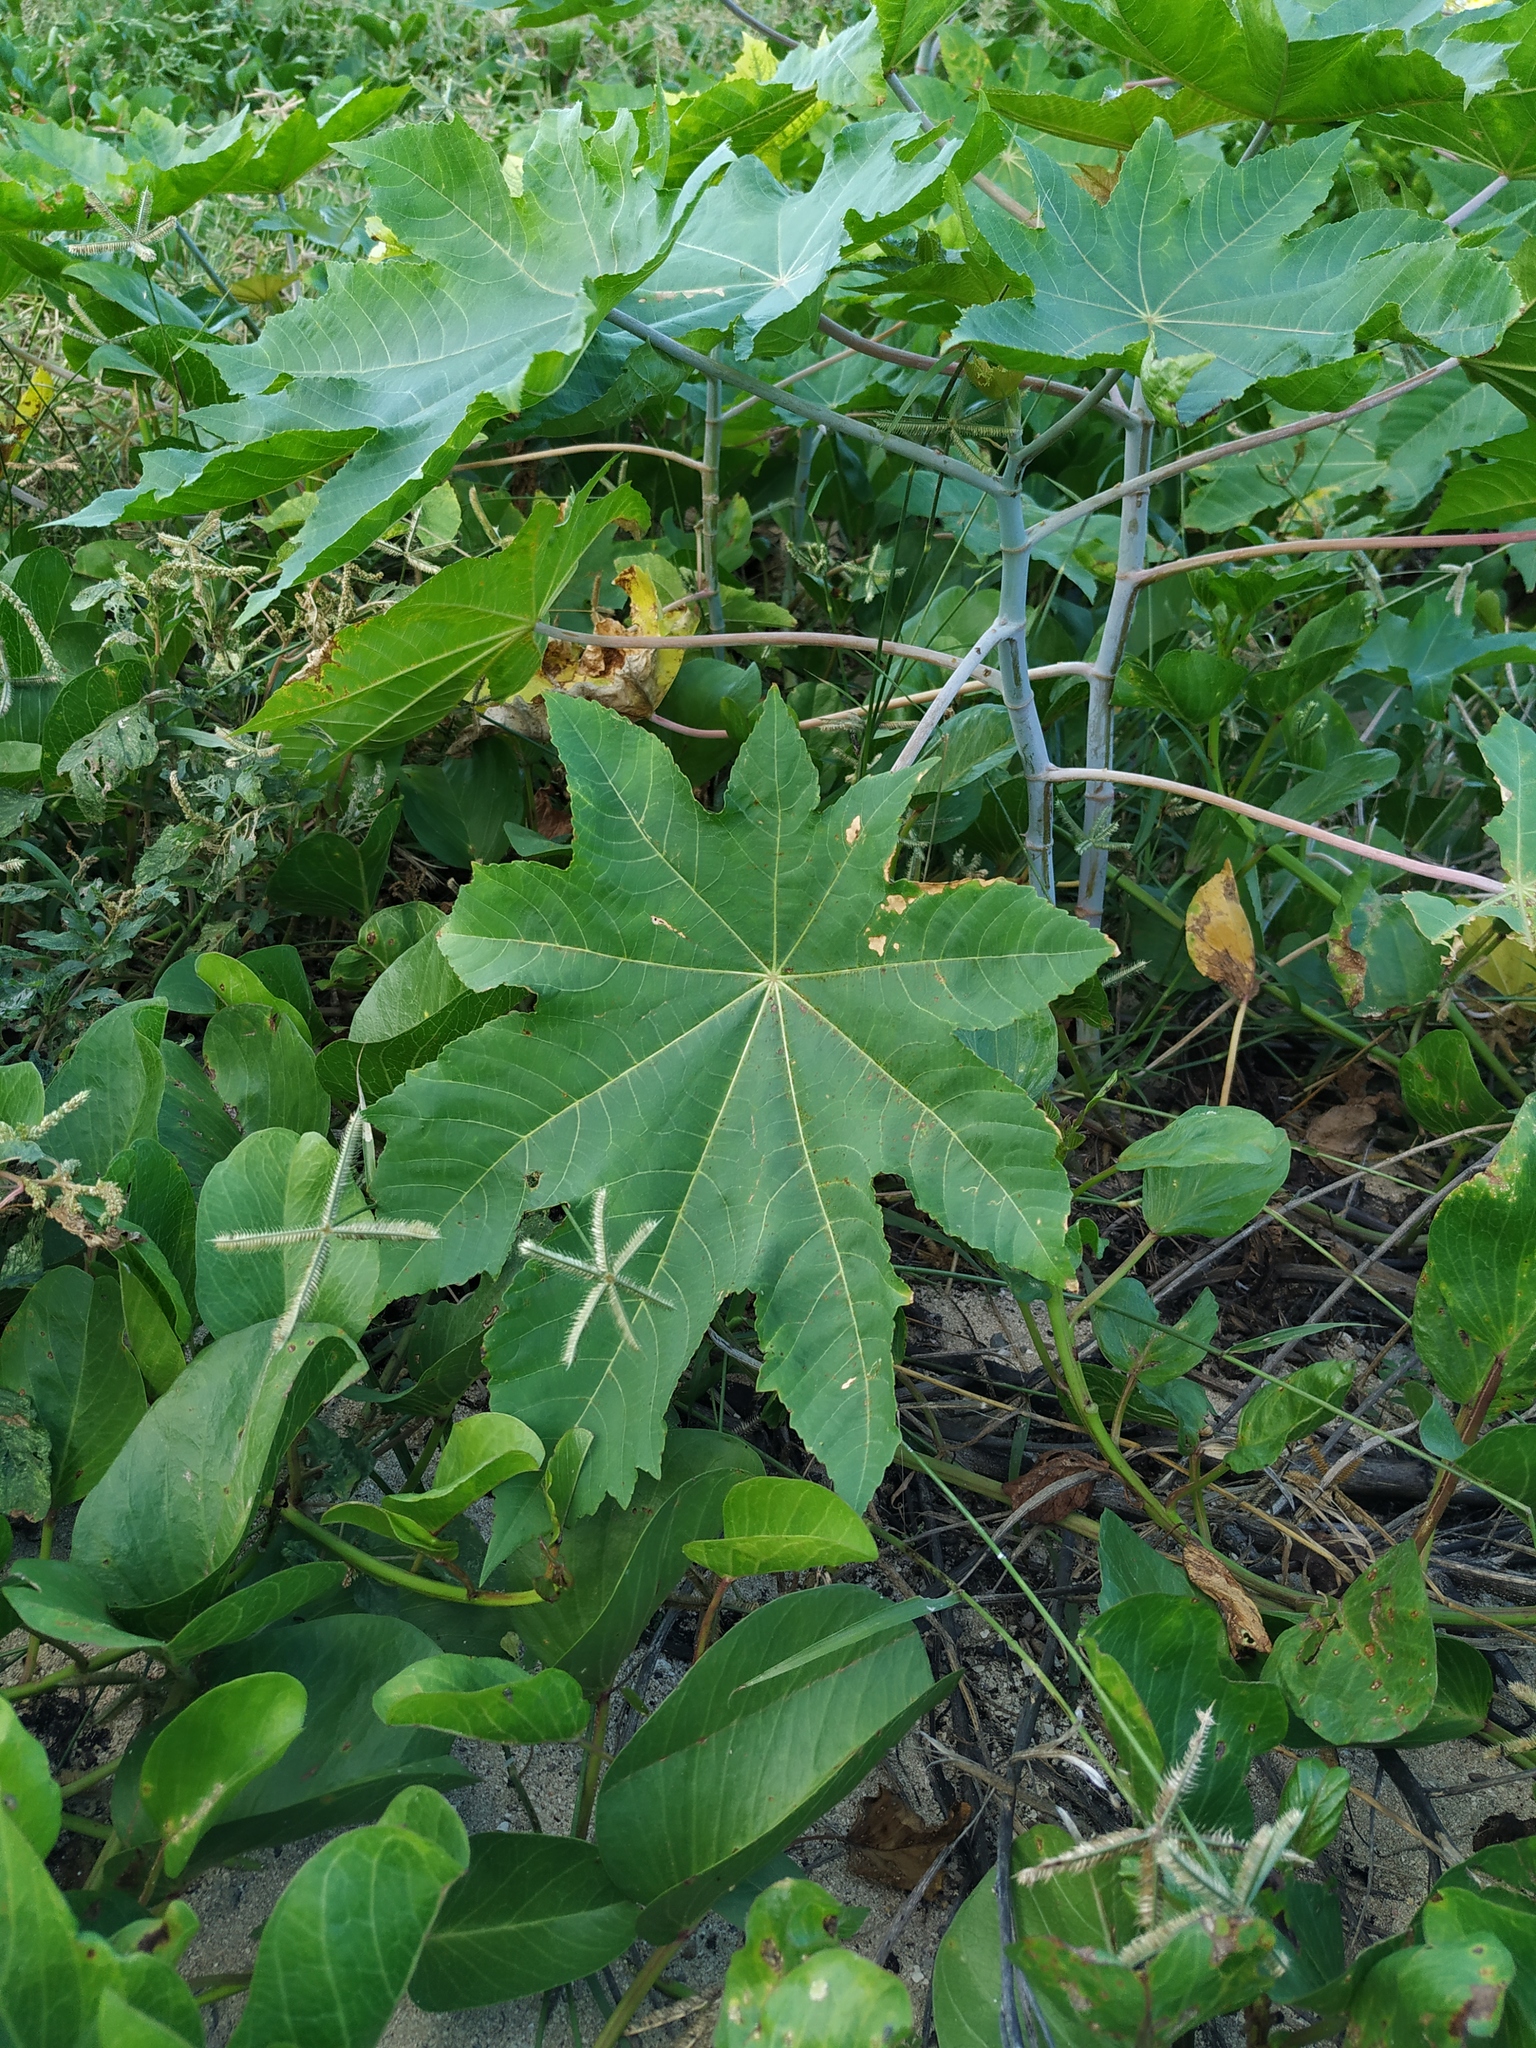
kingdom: Plantae
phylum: Tracheophyta
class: Magnoliopsida
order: Malpighiales
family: Euphorbiaceae
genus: Ricinus
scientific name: Ricinus communis
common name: Castor-oil-plant
